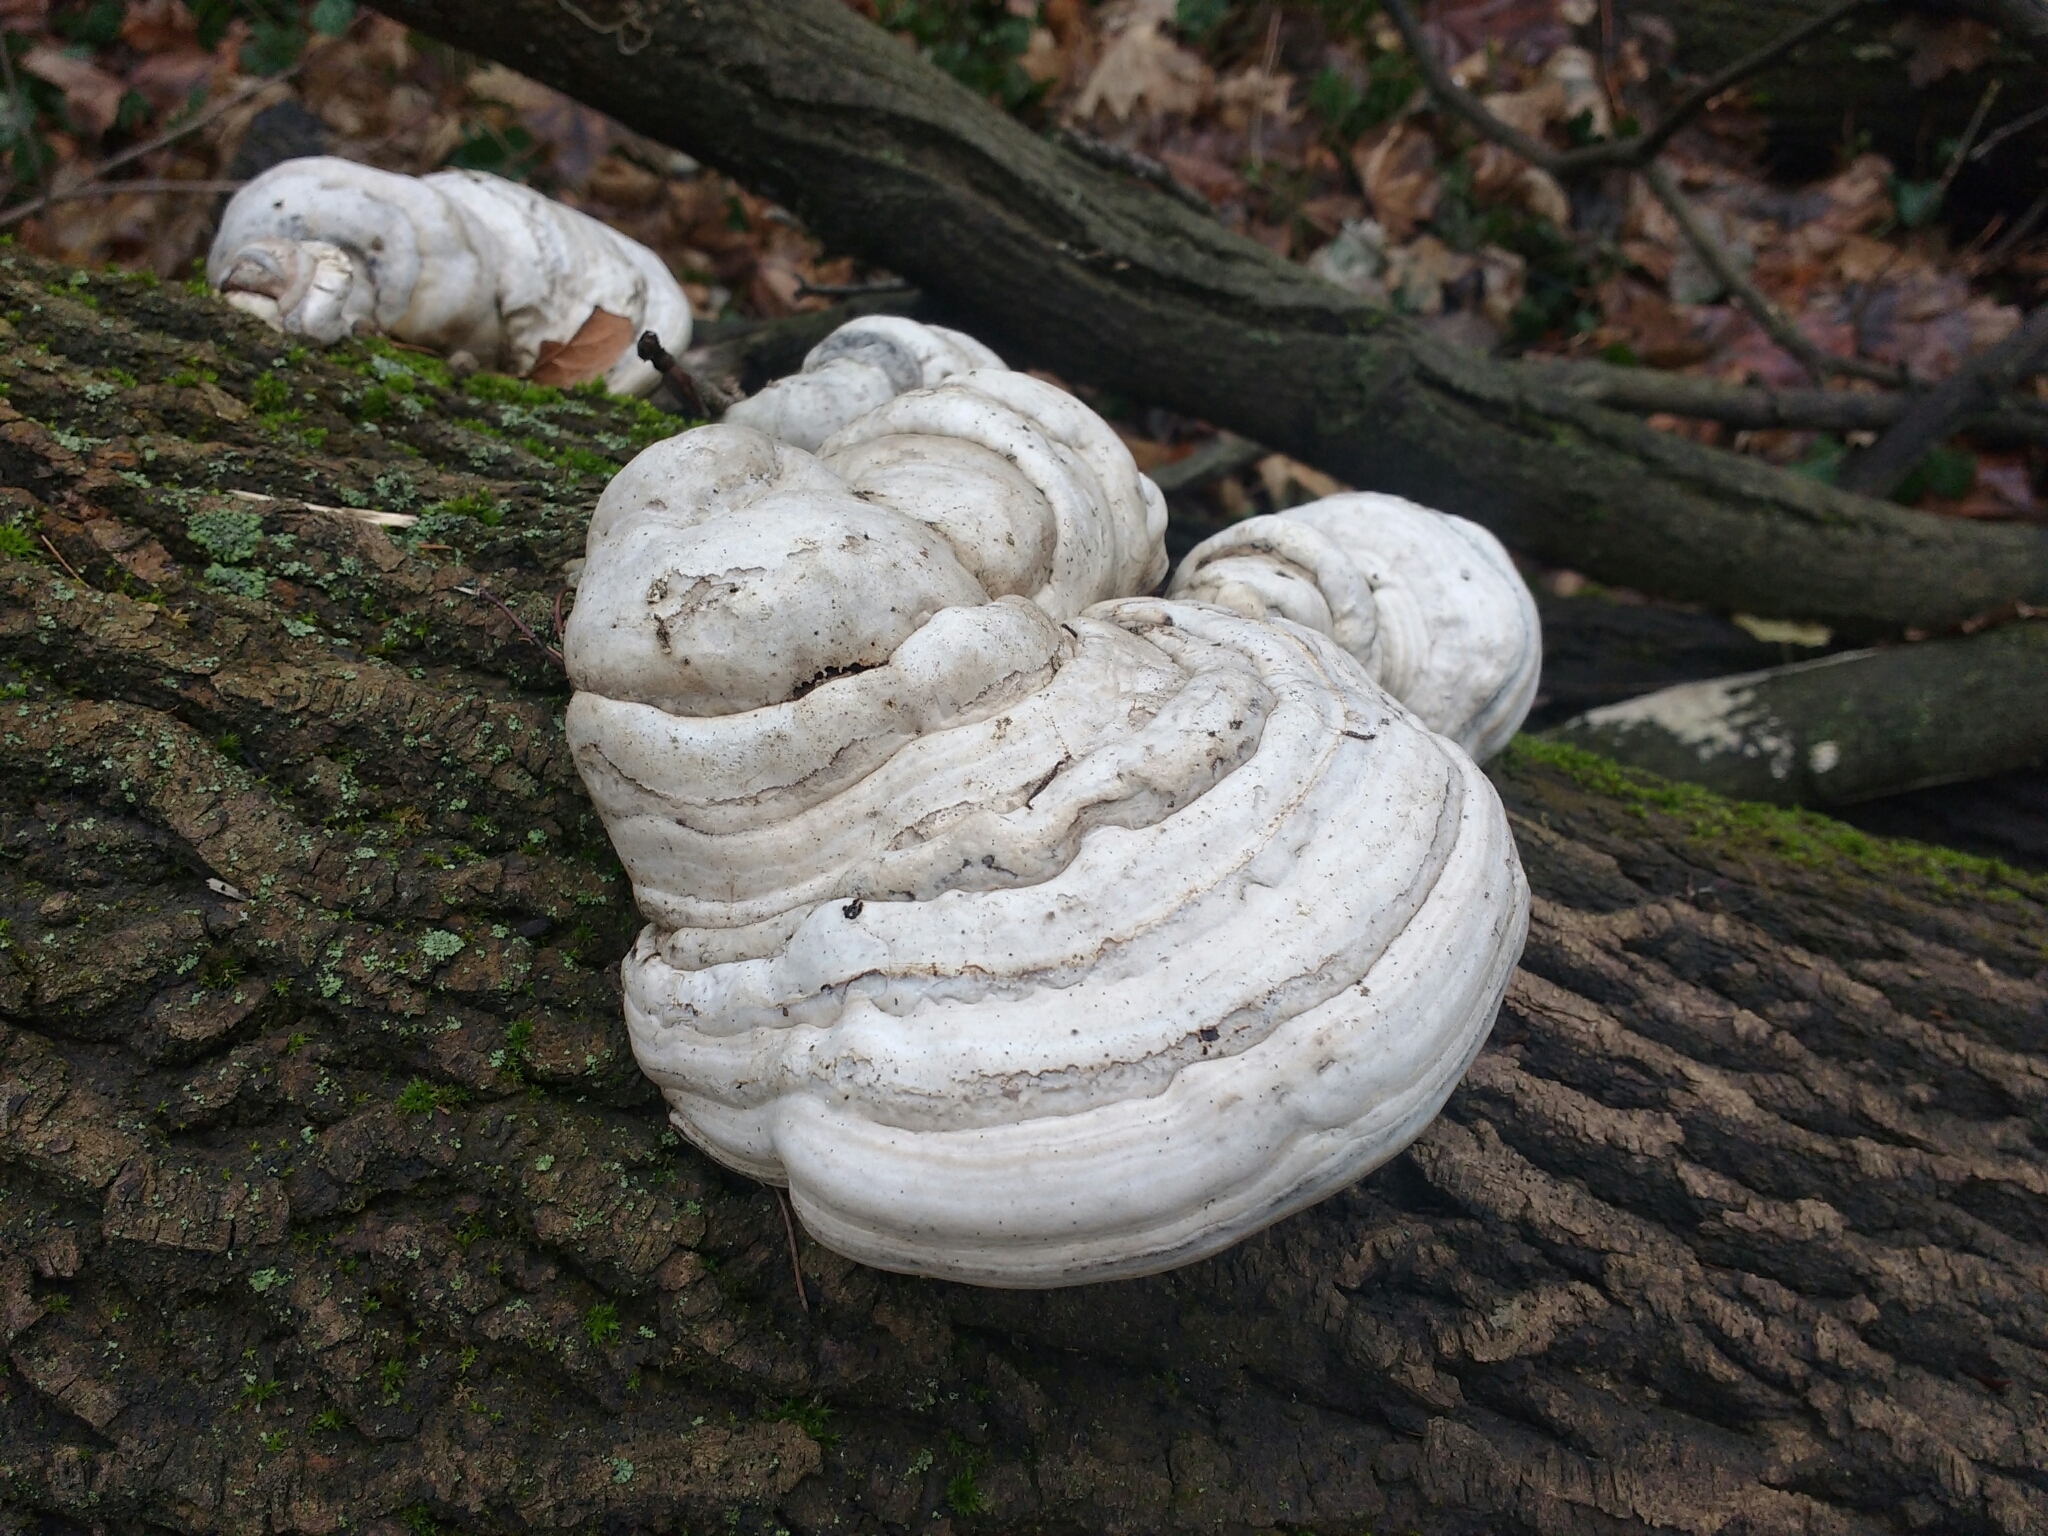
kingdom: Fungi
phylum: Basidiomycota
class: Agaricomycetes
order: Polyporales
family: Polyporaceae
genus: Fomes
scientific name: Fomes fomentarius
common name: Hoof fungus
